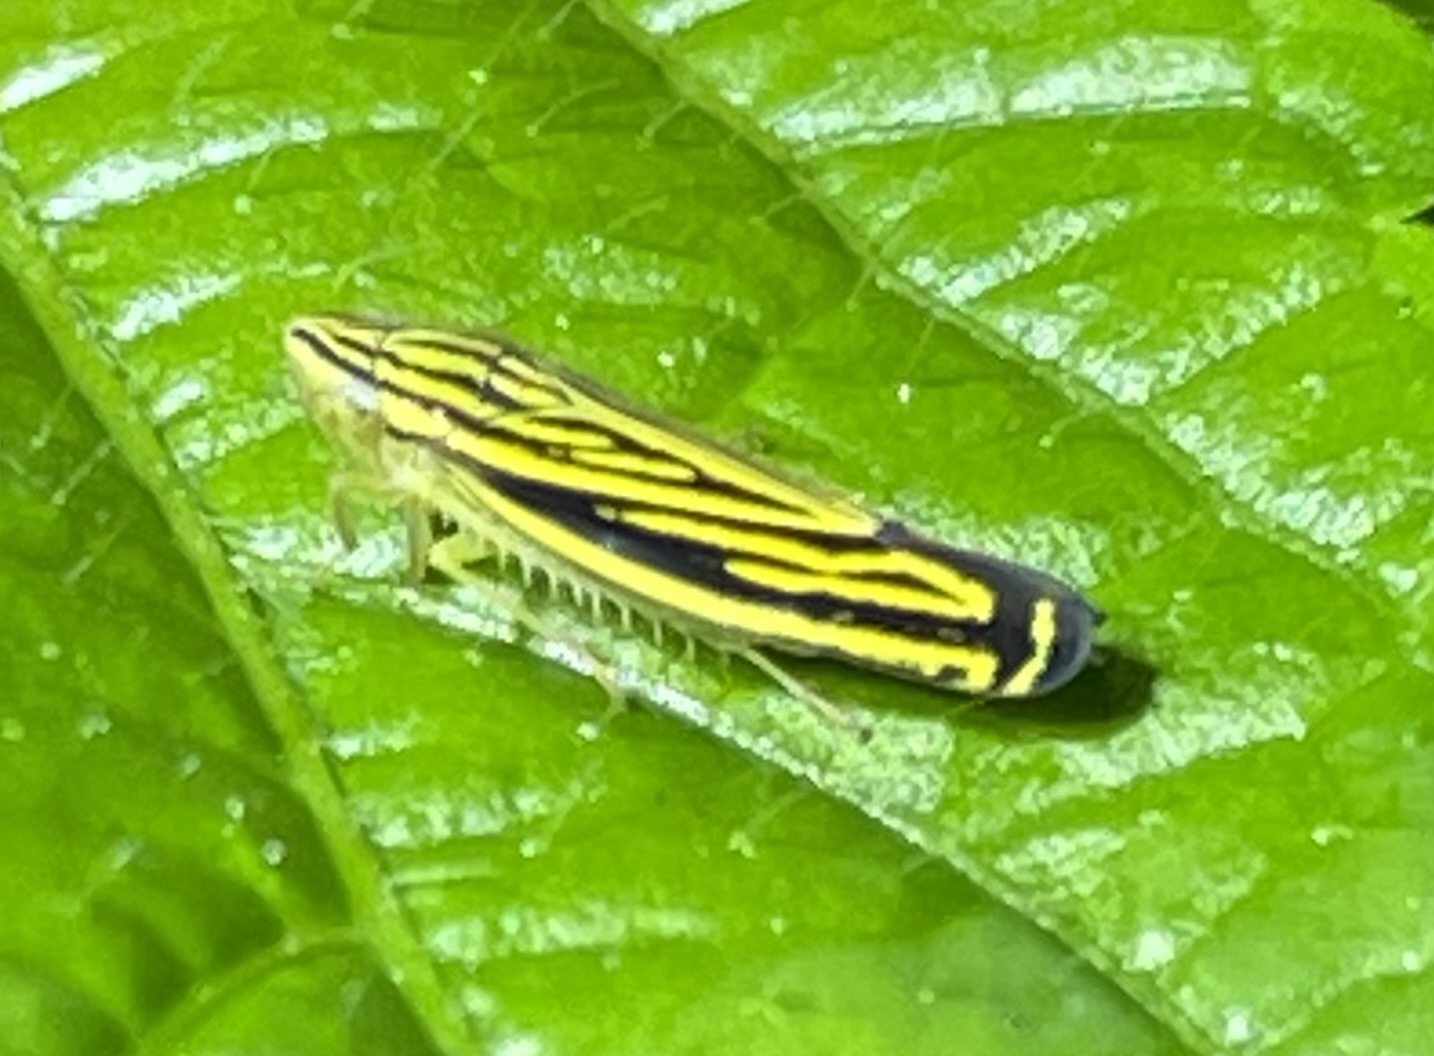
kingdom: Animalia
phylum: Arthropoda
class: Insecta
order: Hemiptera
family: Cicadellidae
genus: Sibovia
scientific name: Sibovia occatoria
